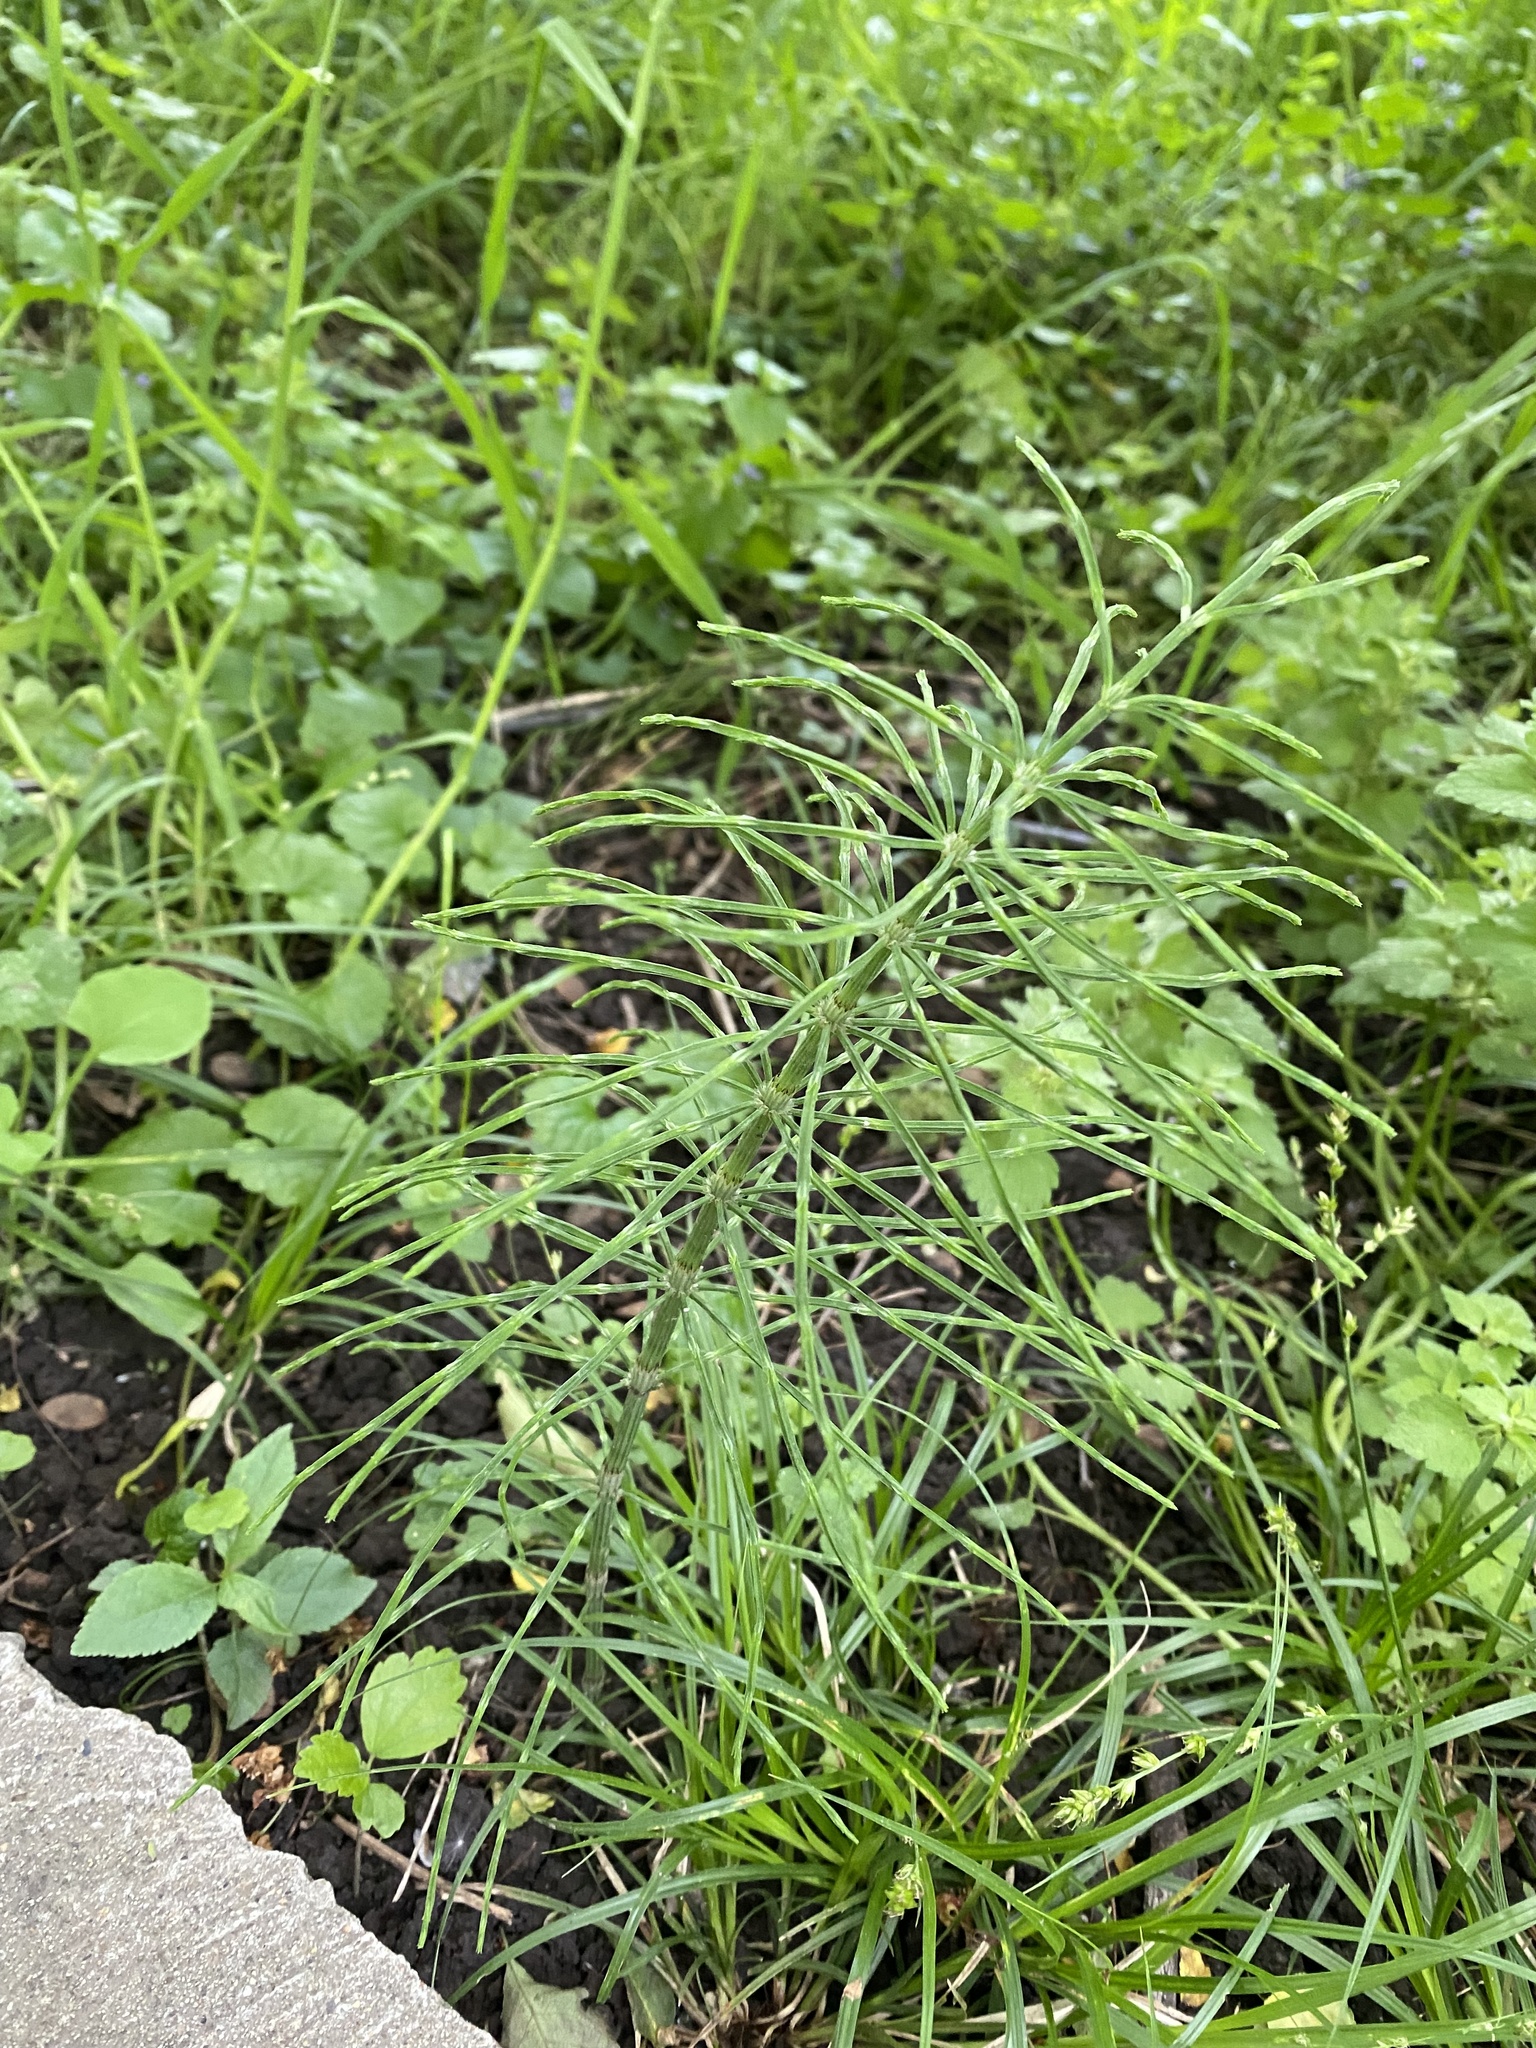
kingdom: Plantae
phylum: Tracheophyta
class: Polypodiopsida
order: Equisetales
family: Equisetaceae
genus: Equisetum
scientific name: Equisetum arvense
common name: Field horsetail
